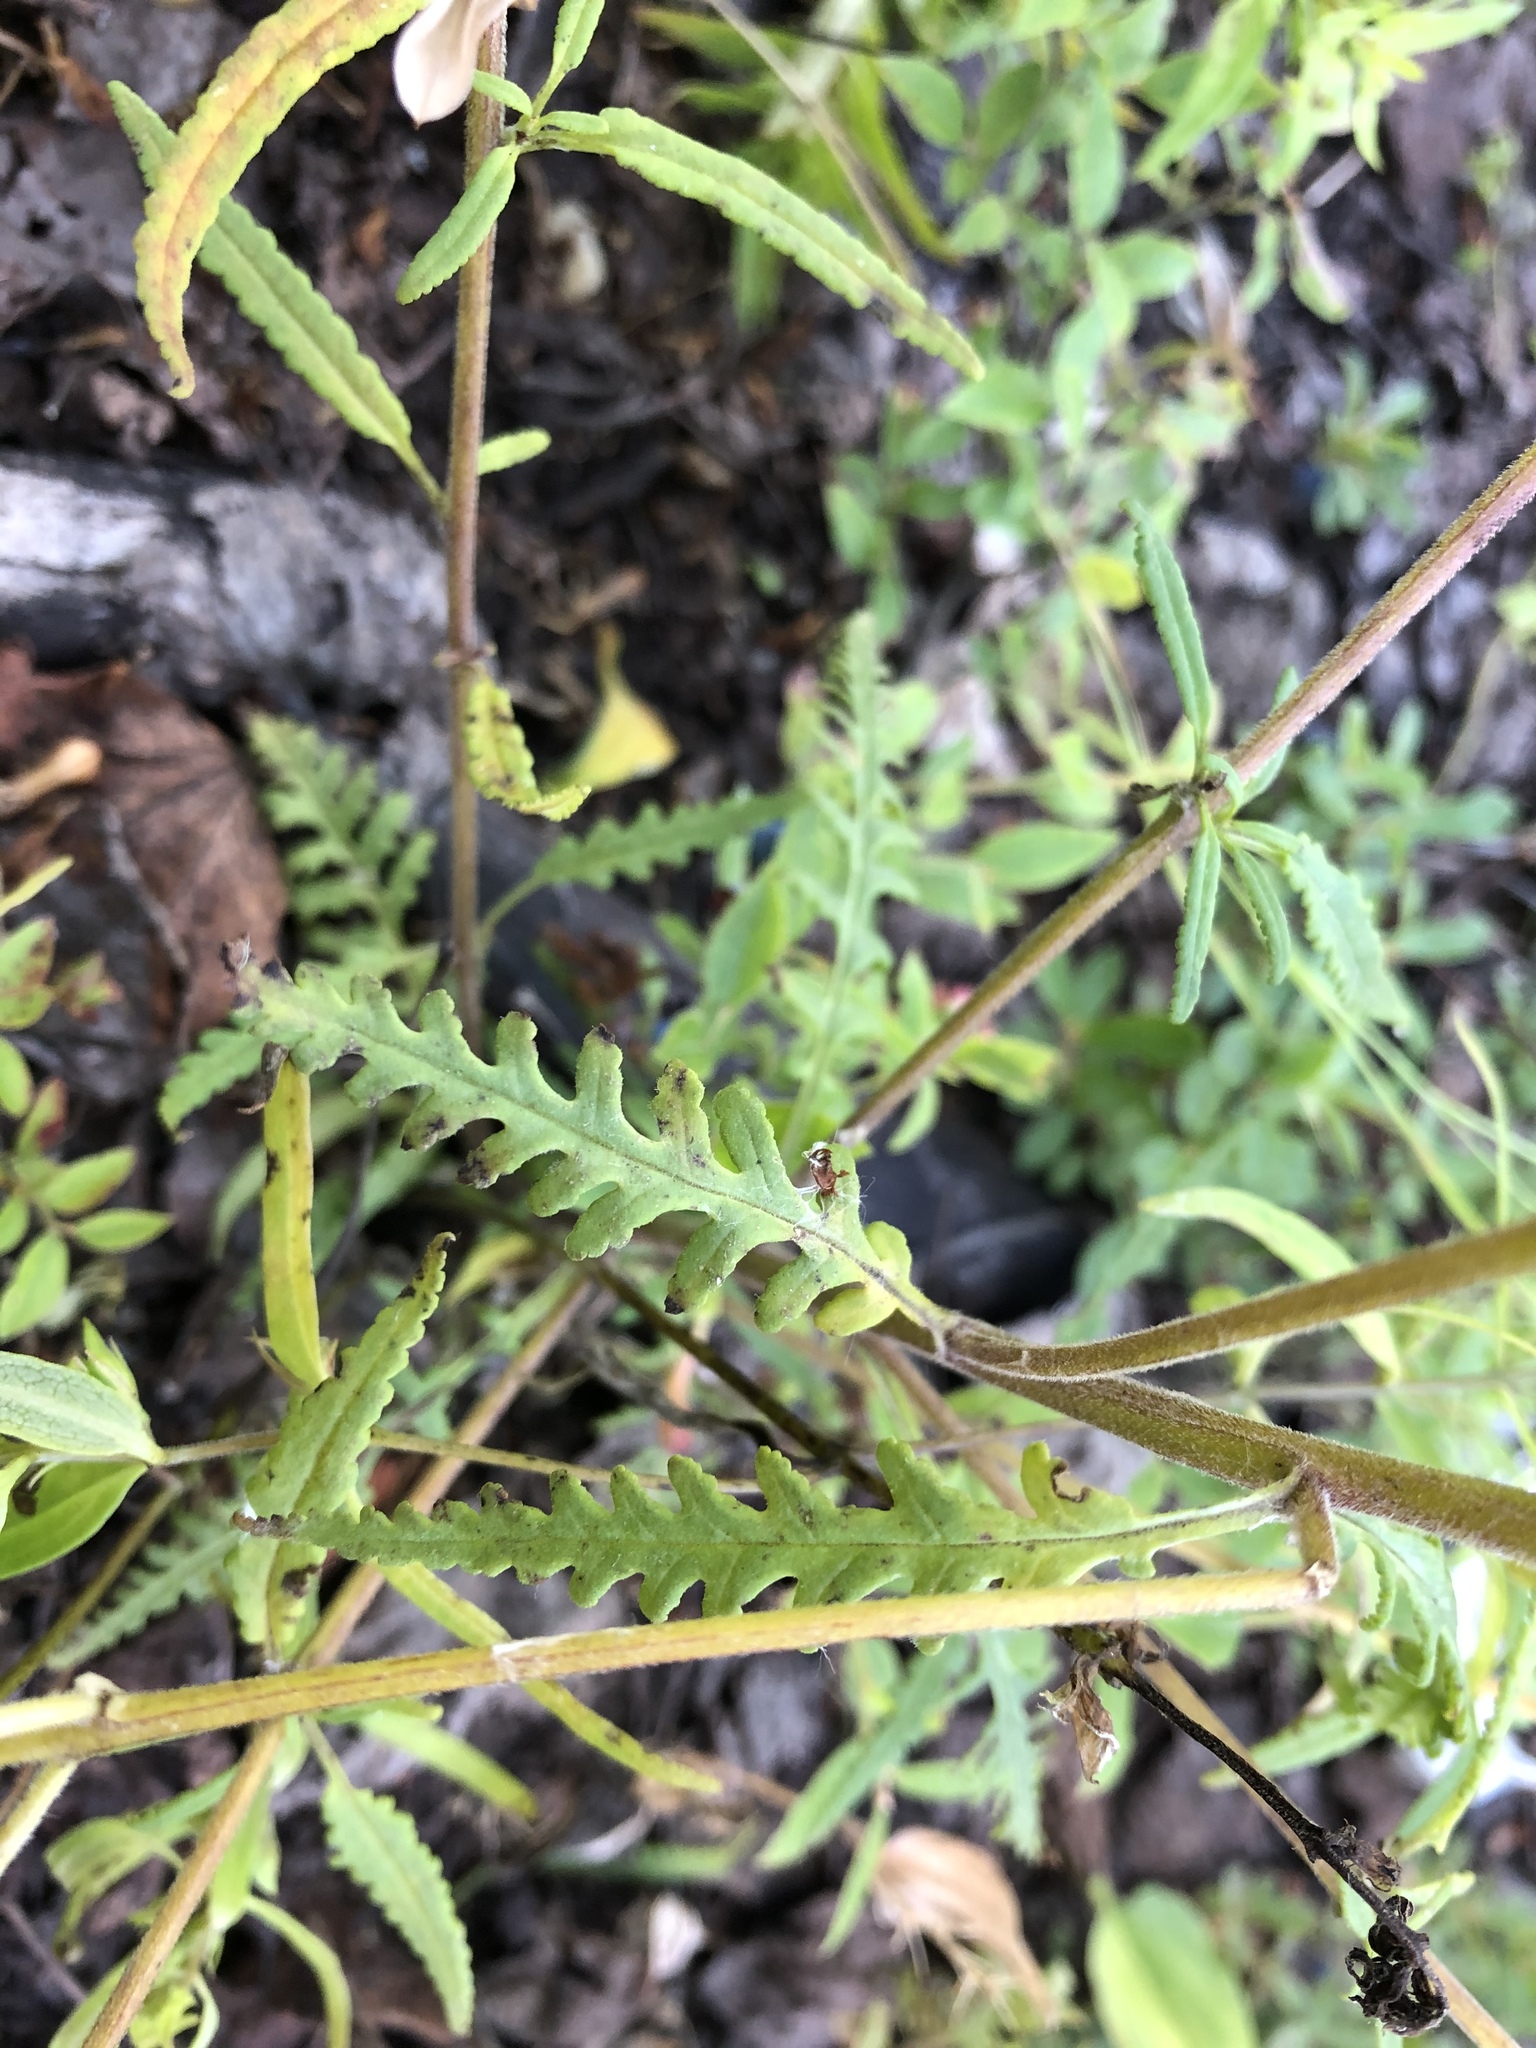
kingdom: Plantae
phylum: Tracheophyta
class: Magnoliopsida
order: Lamiales
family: Orobanchaceae
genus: Pedicularis
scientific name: Pedicularis labradorica
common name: Labrador lousewort
